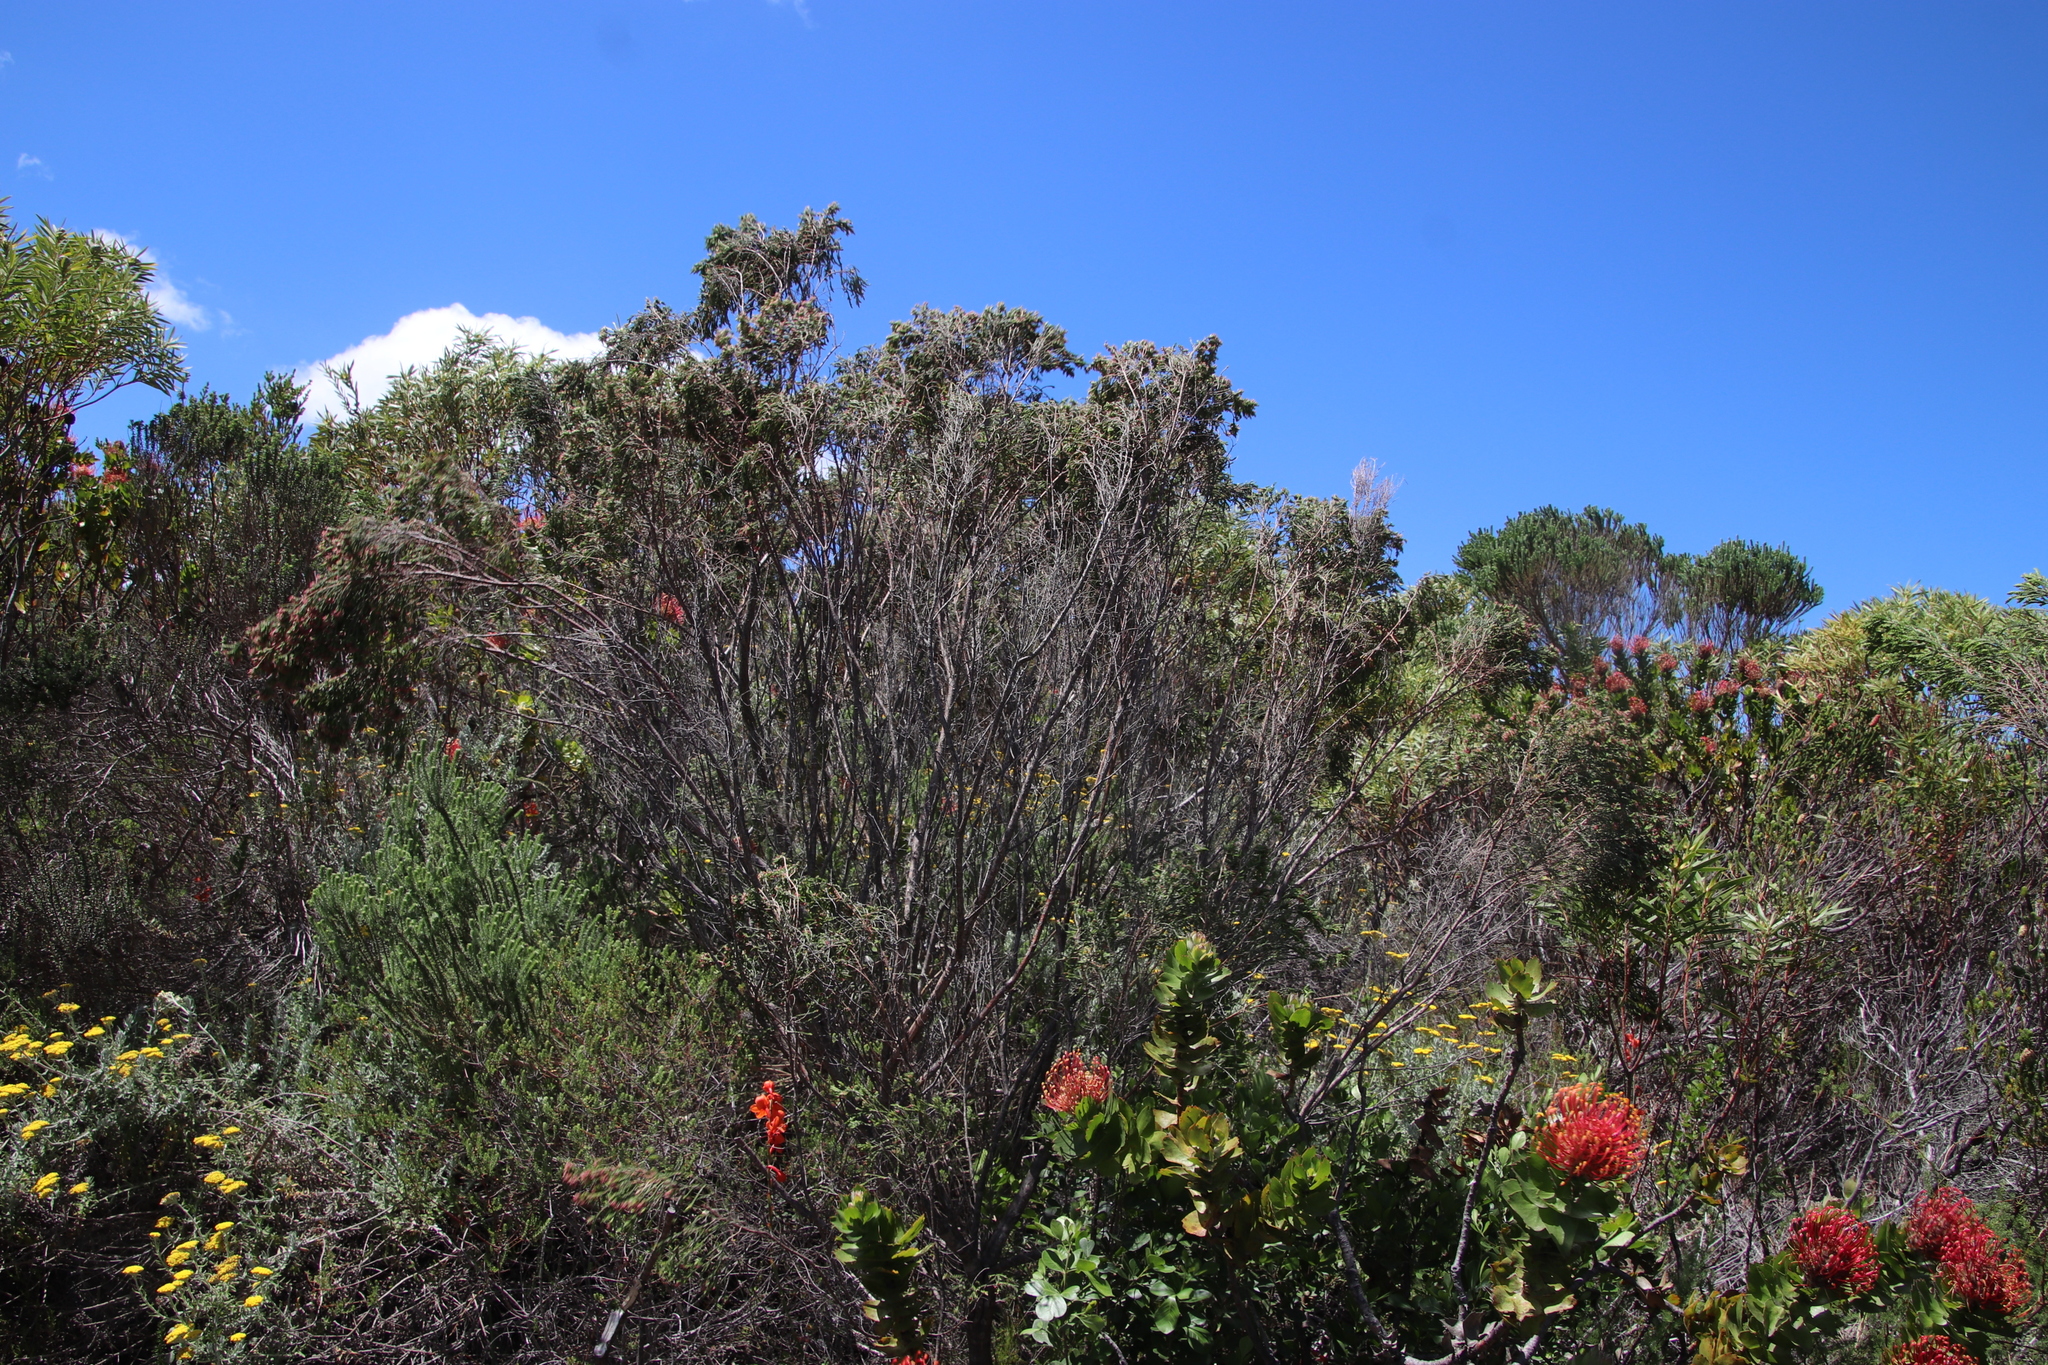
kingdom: Plantae
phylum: Tracheophyta
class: Magnoliopsida
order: Malvales
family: Thymelaeaceae
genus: Passerina
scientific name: Passerina corymbosa
